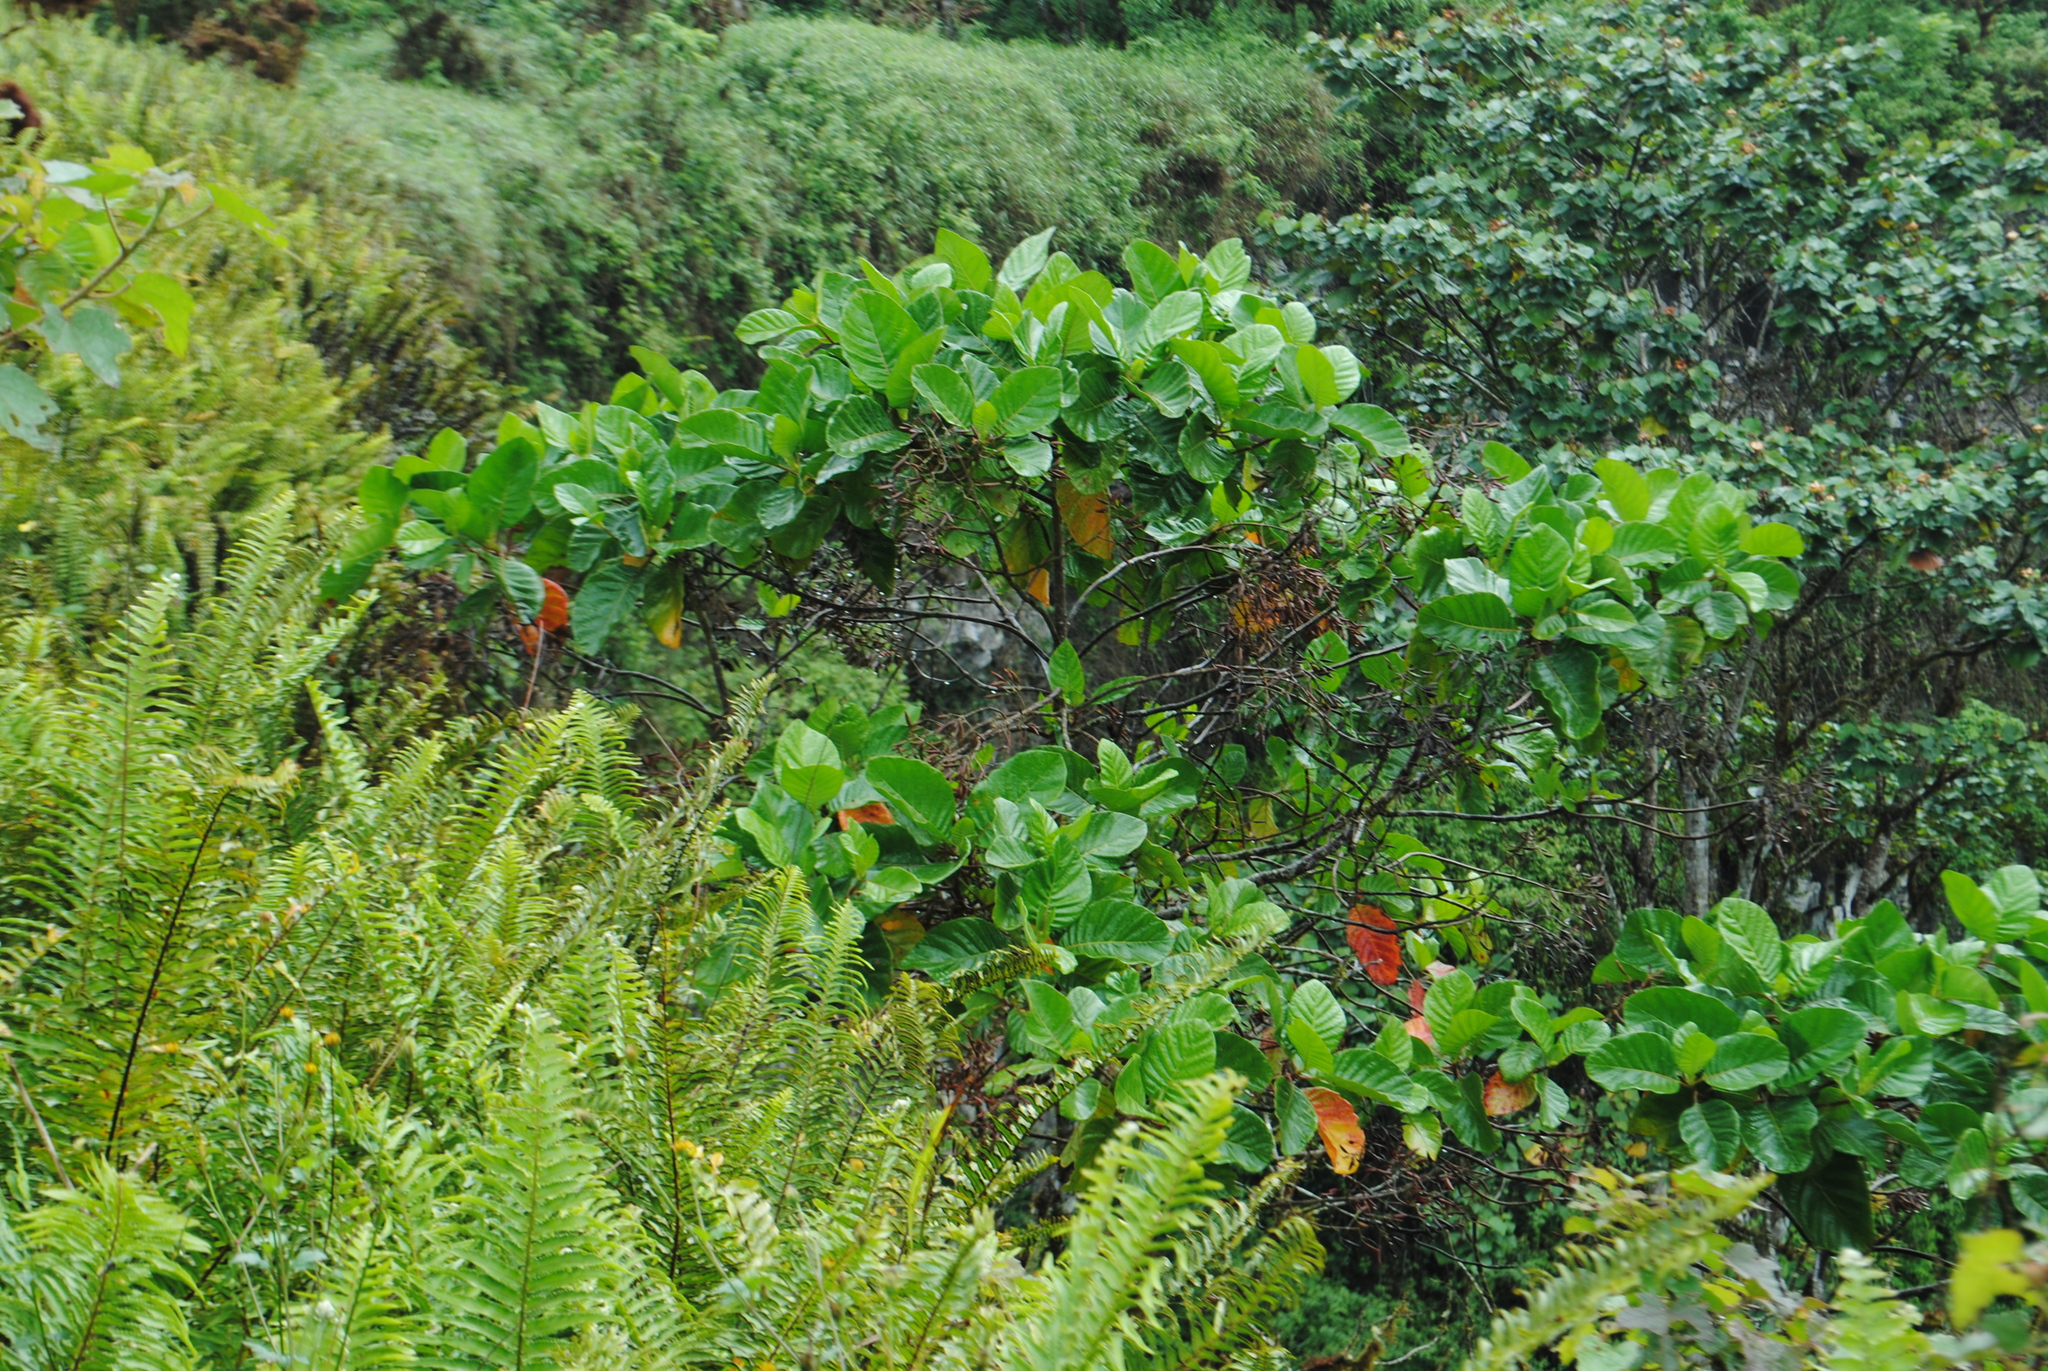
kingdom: Plantae
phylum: Tracheophyta
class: Magnoliopsida
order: Gentianales
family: Rubiaceae
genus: Cinchona
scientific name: Cinchona pubescens
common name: Quinine
